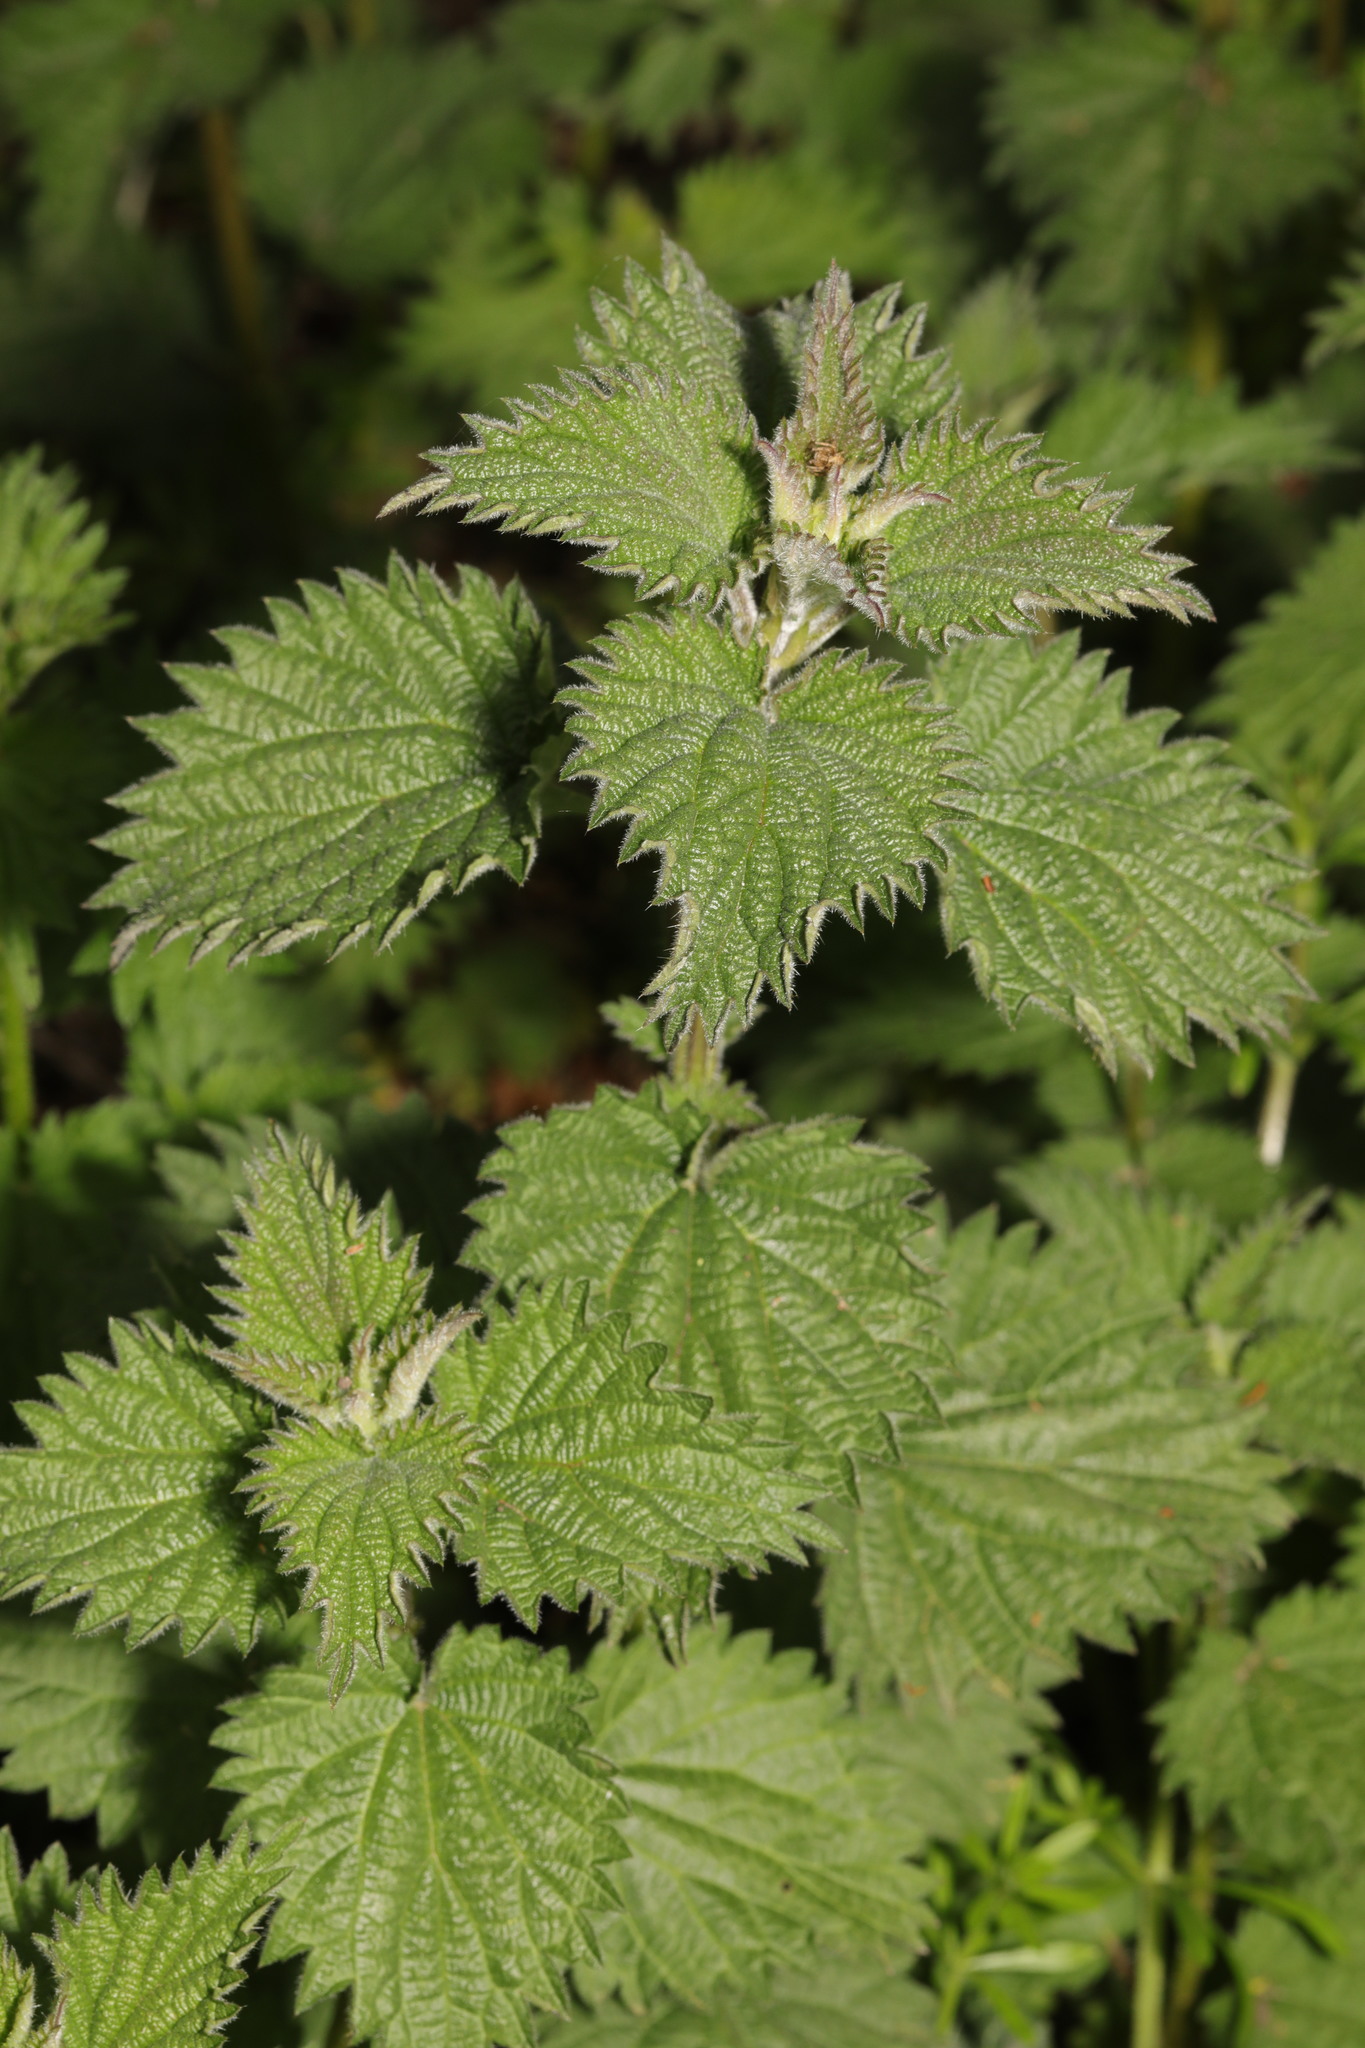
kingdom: Plantae
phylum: Tracheophyta
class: Magnoliopsida
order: Rosales
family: Urticaceae
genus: Urtica
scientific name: Urtica dioica
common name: Common nettle
